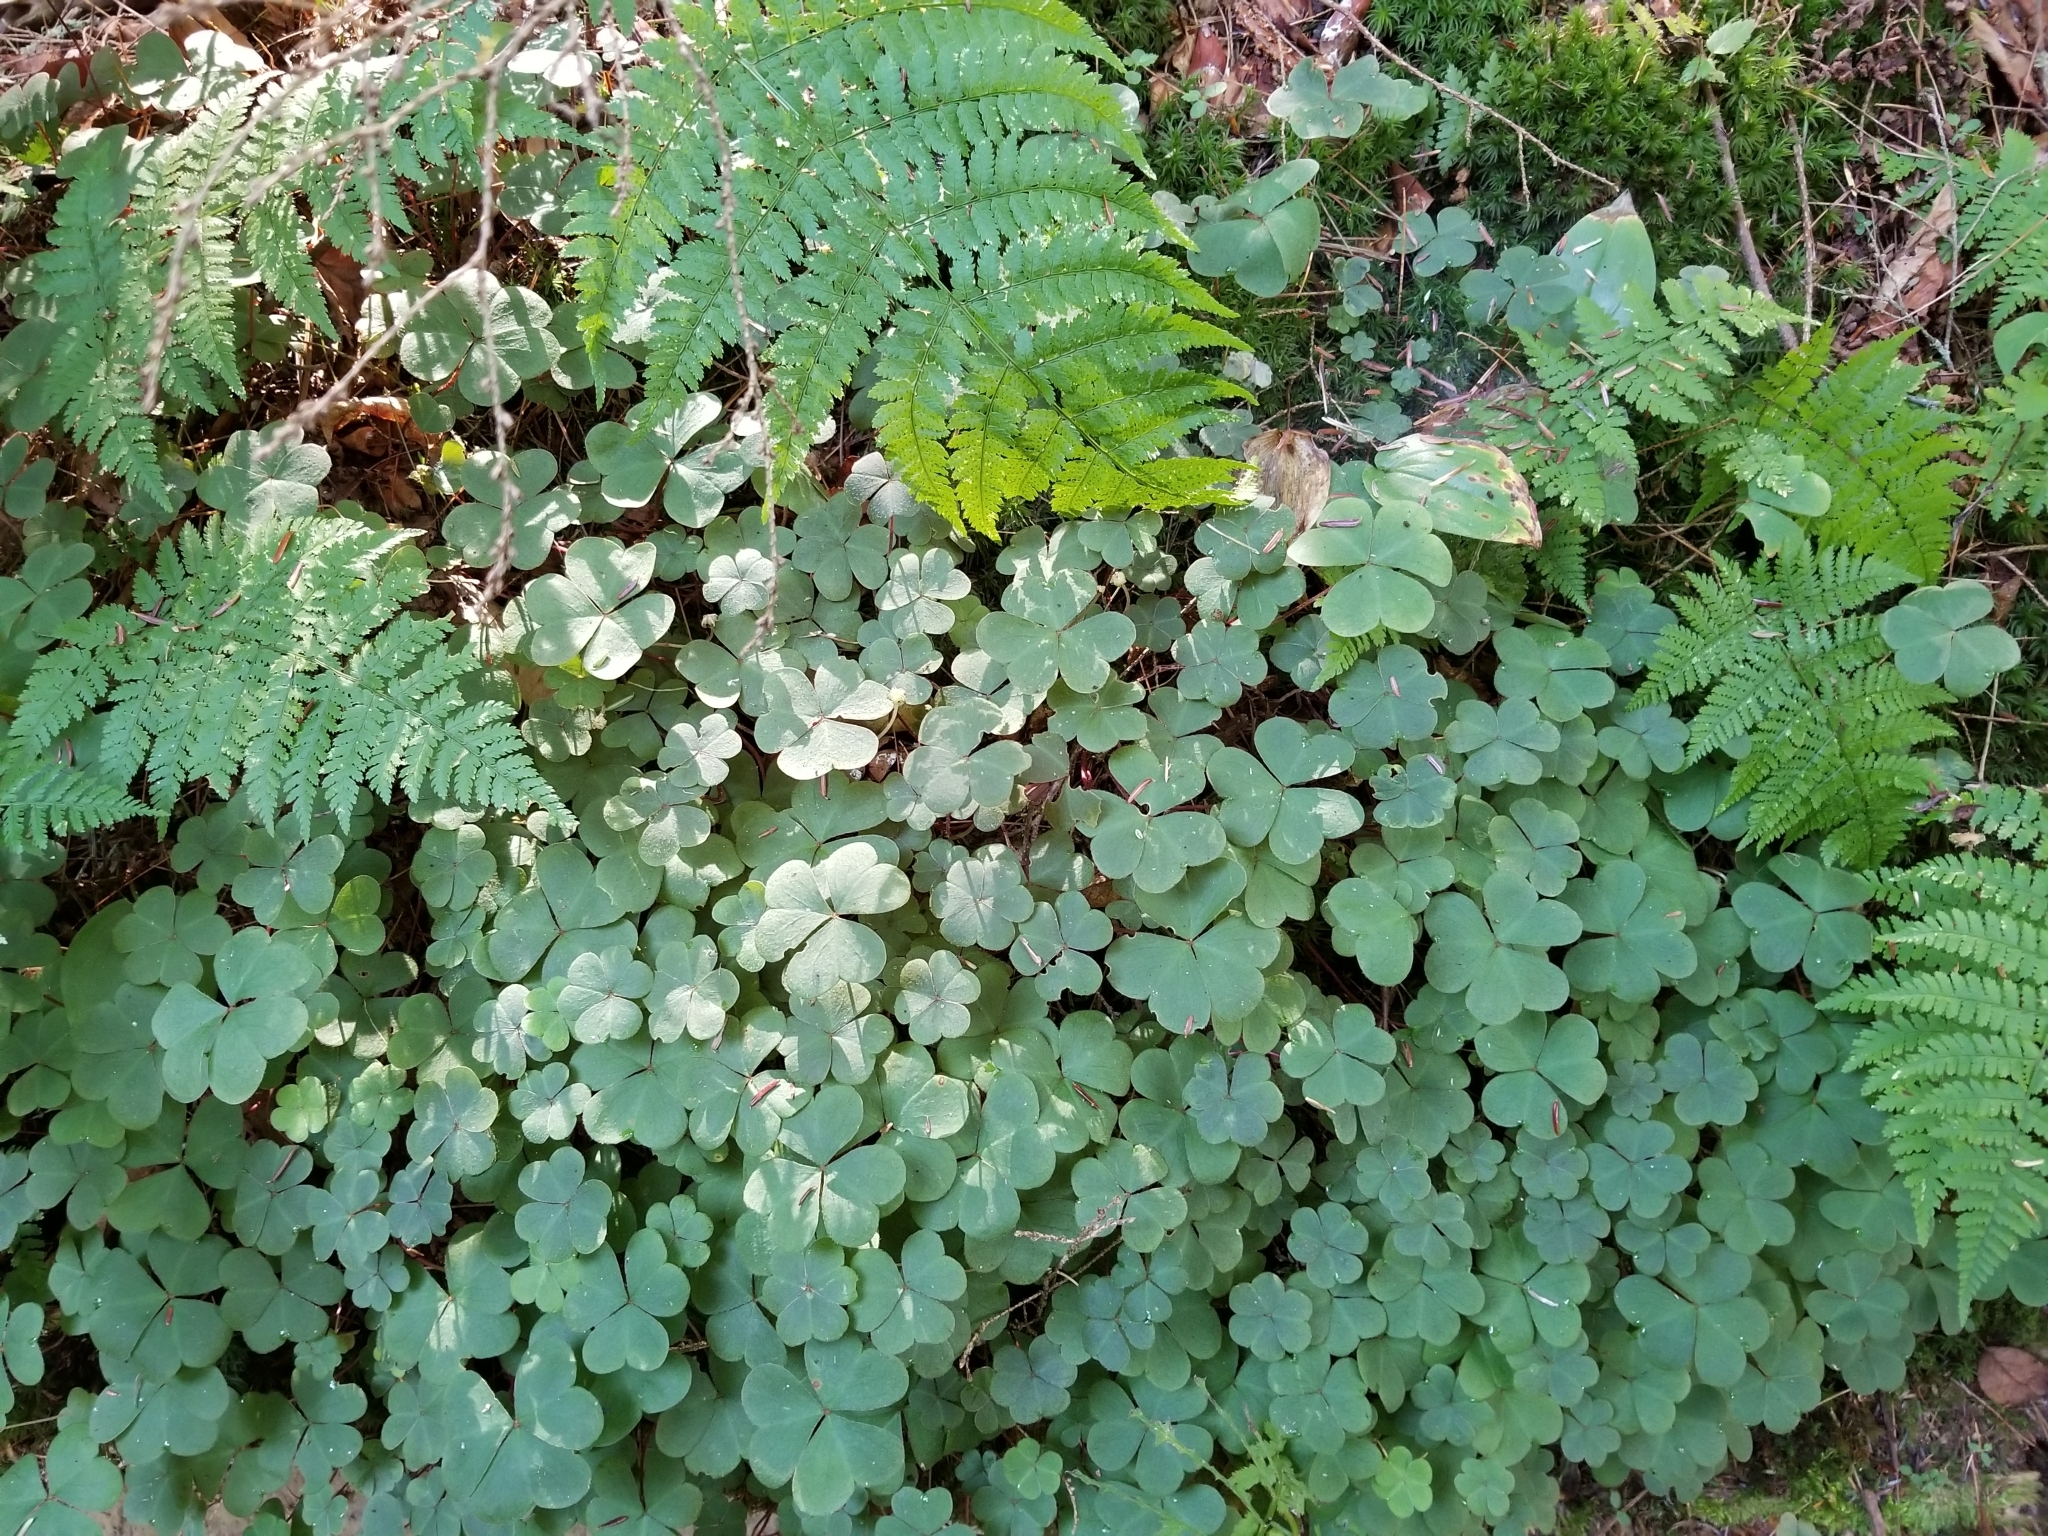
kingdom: Plantae
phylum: Tracheophyta
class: Magnoliopsida
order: Oxalidales
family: Oxalidaceae
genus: Oxalis
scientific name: Oxalis montana
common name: American wood-sorrel
